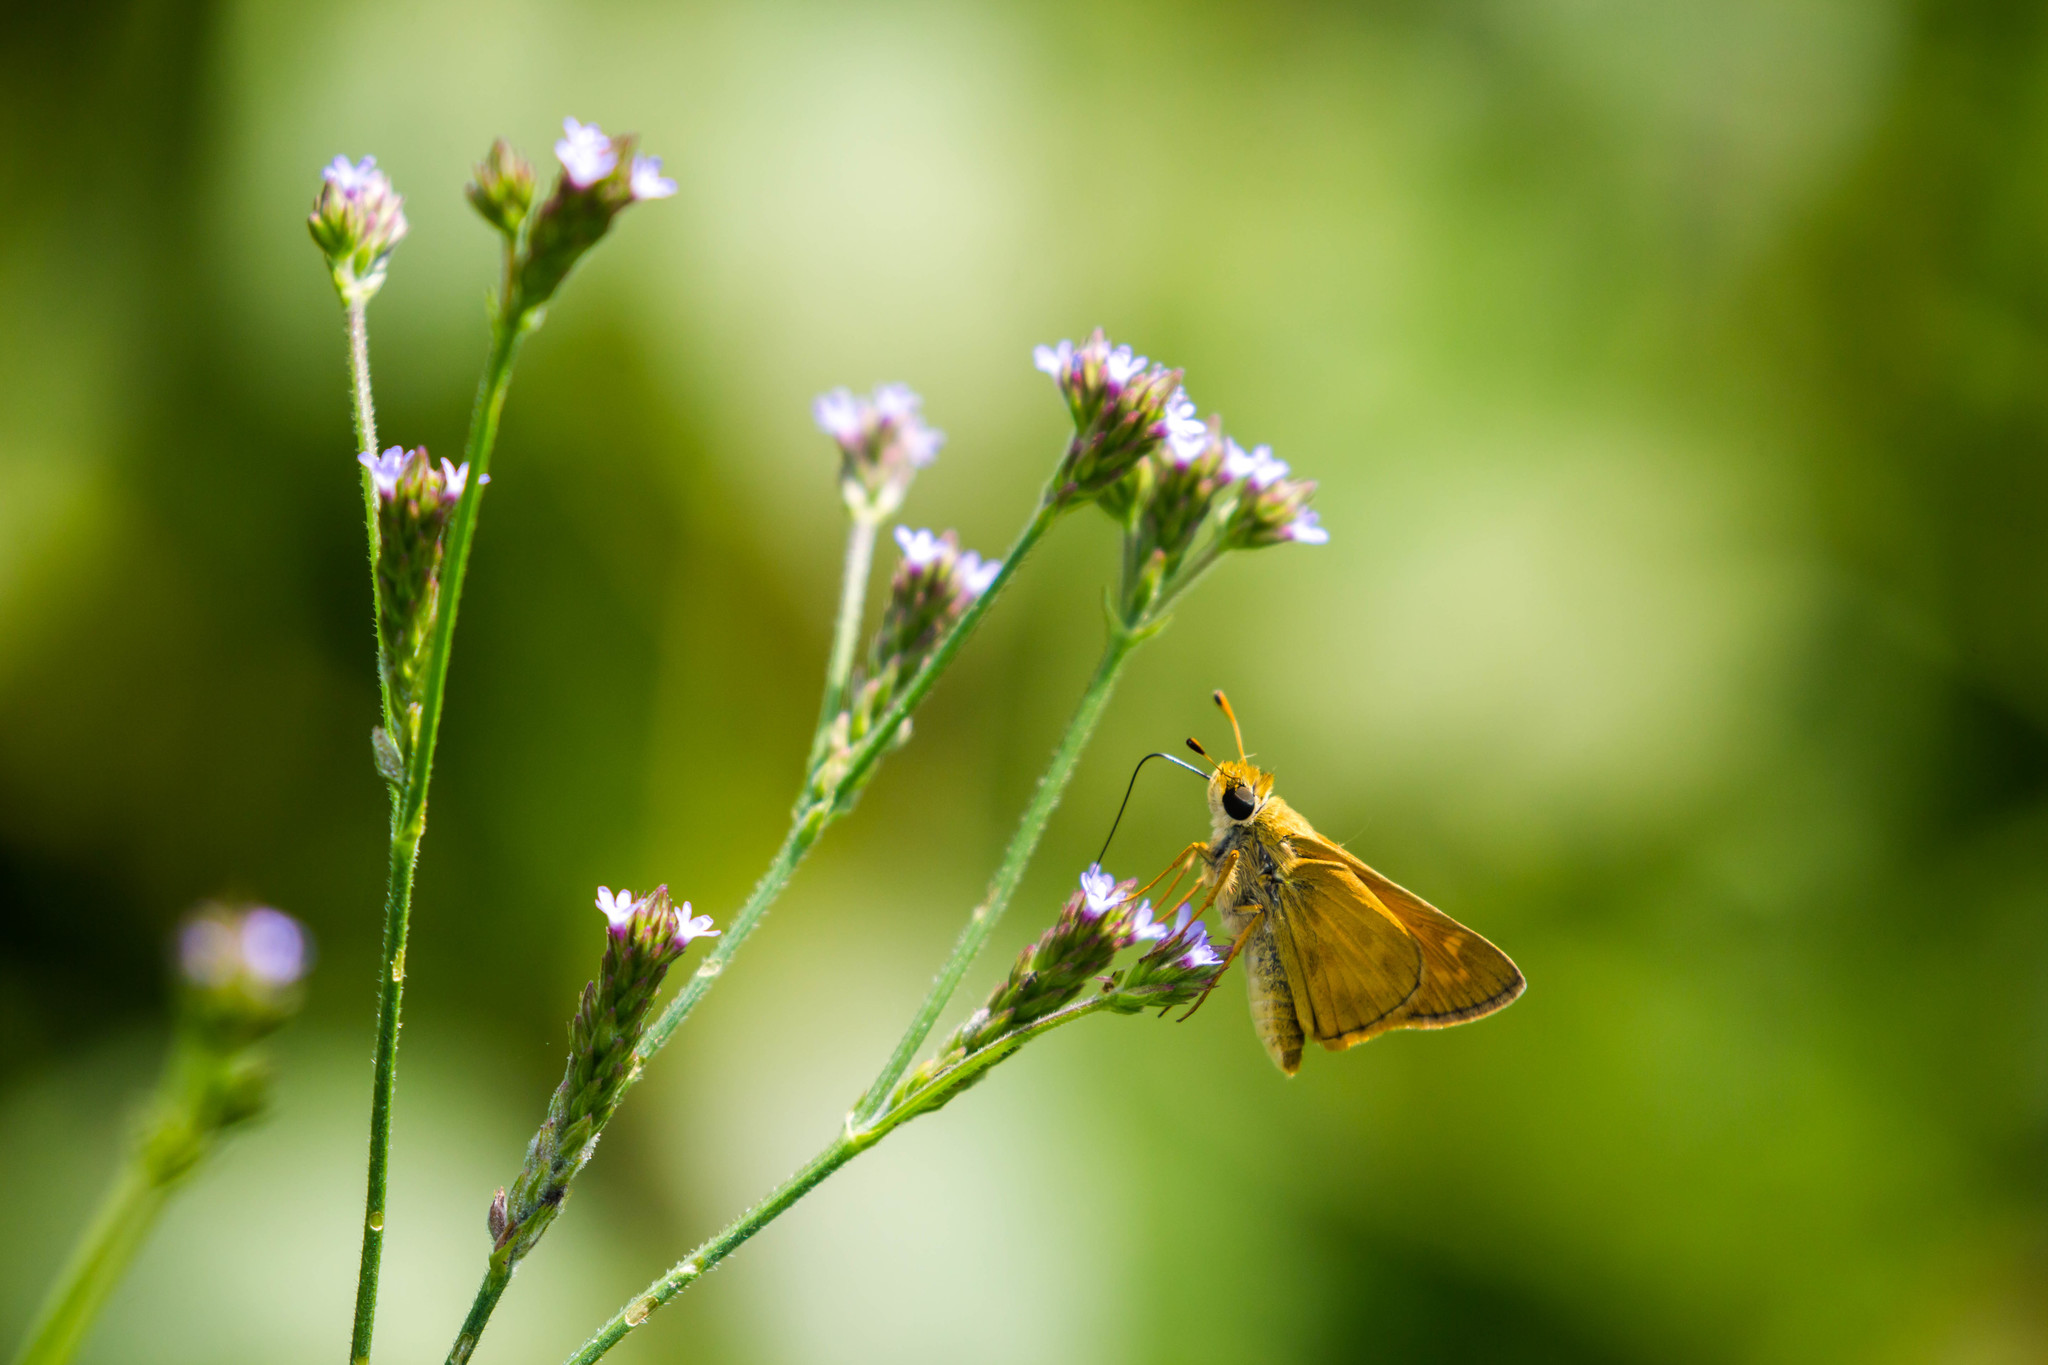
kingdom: Animalia
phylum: Arthropoda
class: Insecta
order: Lepidoptera
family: Hesperiidae
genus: Atalopedes
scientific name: Atalopedes
